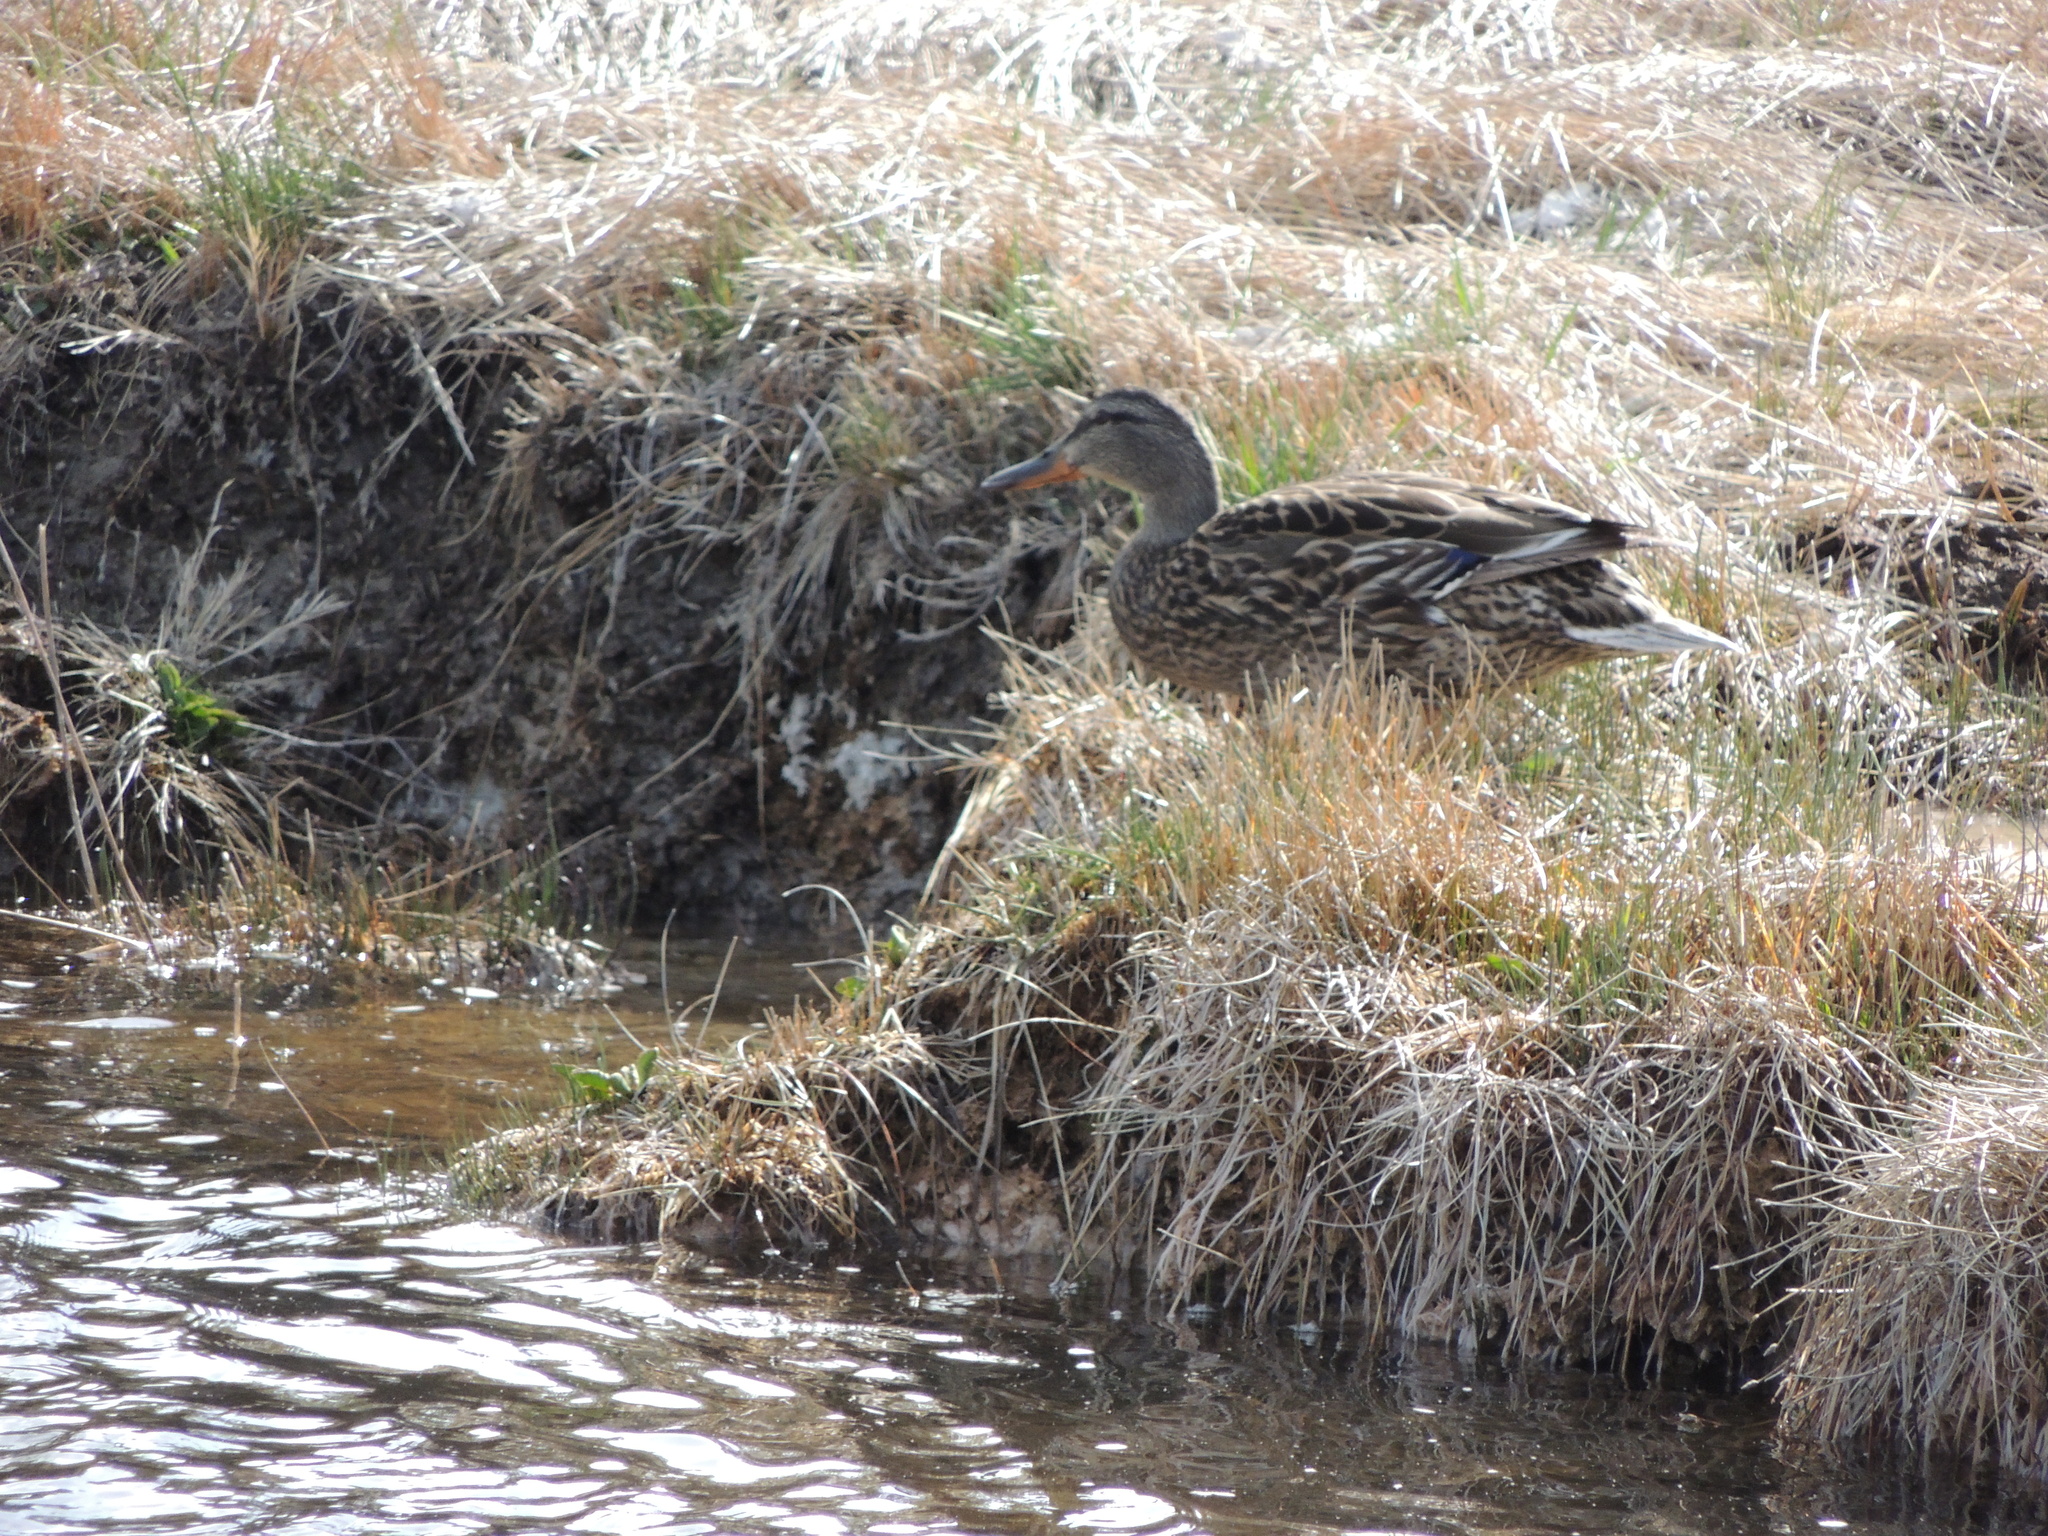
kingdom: Animalia
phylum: Chordata
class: Aves
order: Anseriformes
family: Anatidae
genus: Anas
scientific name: Anas platyrhynchos
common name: Mallard
